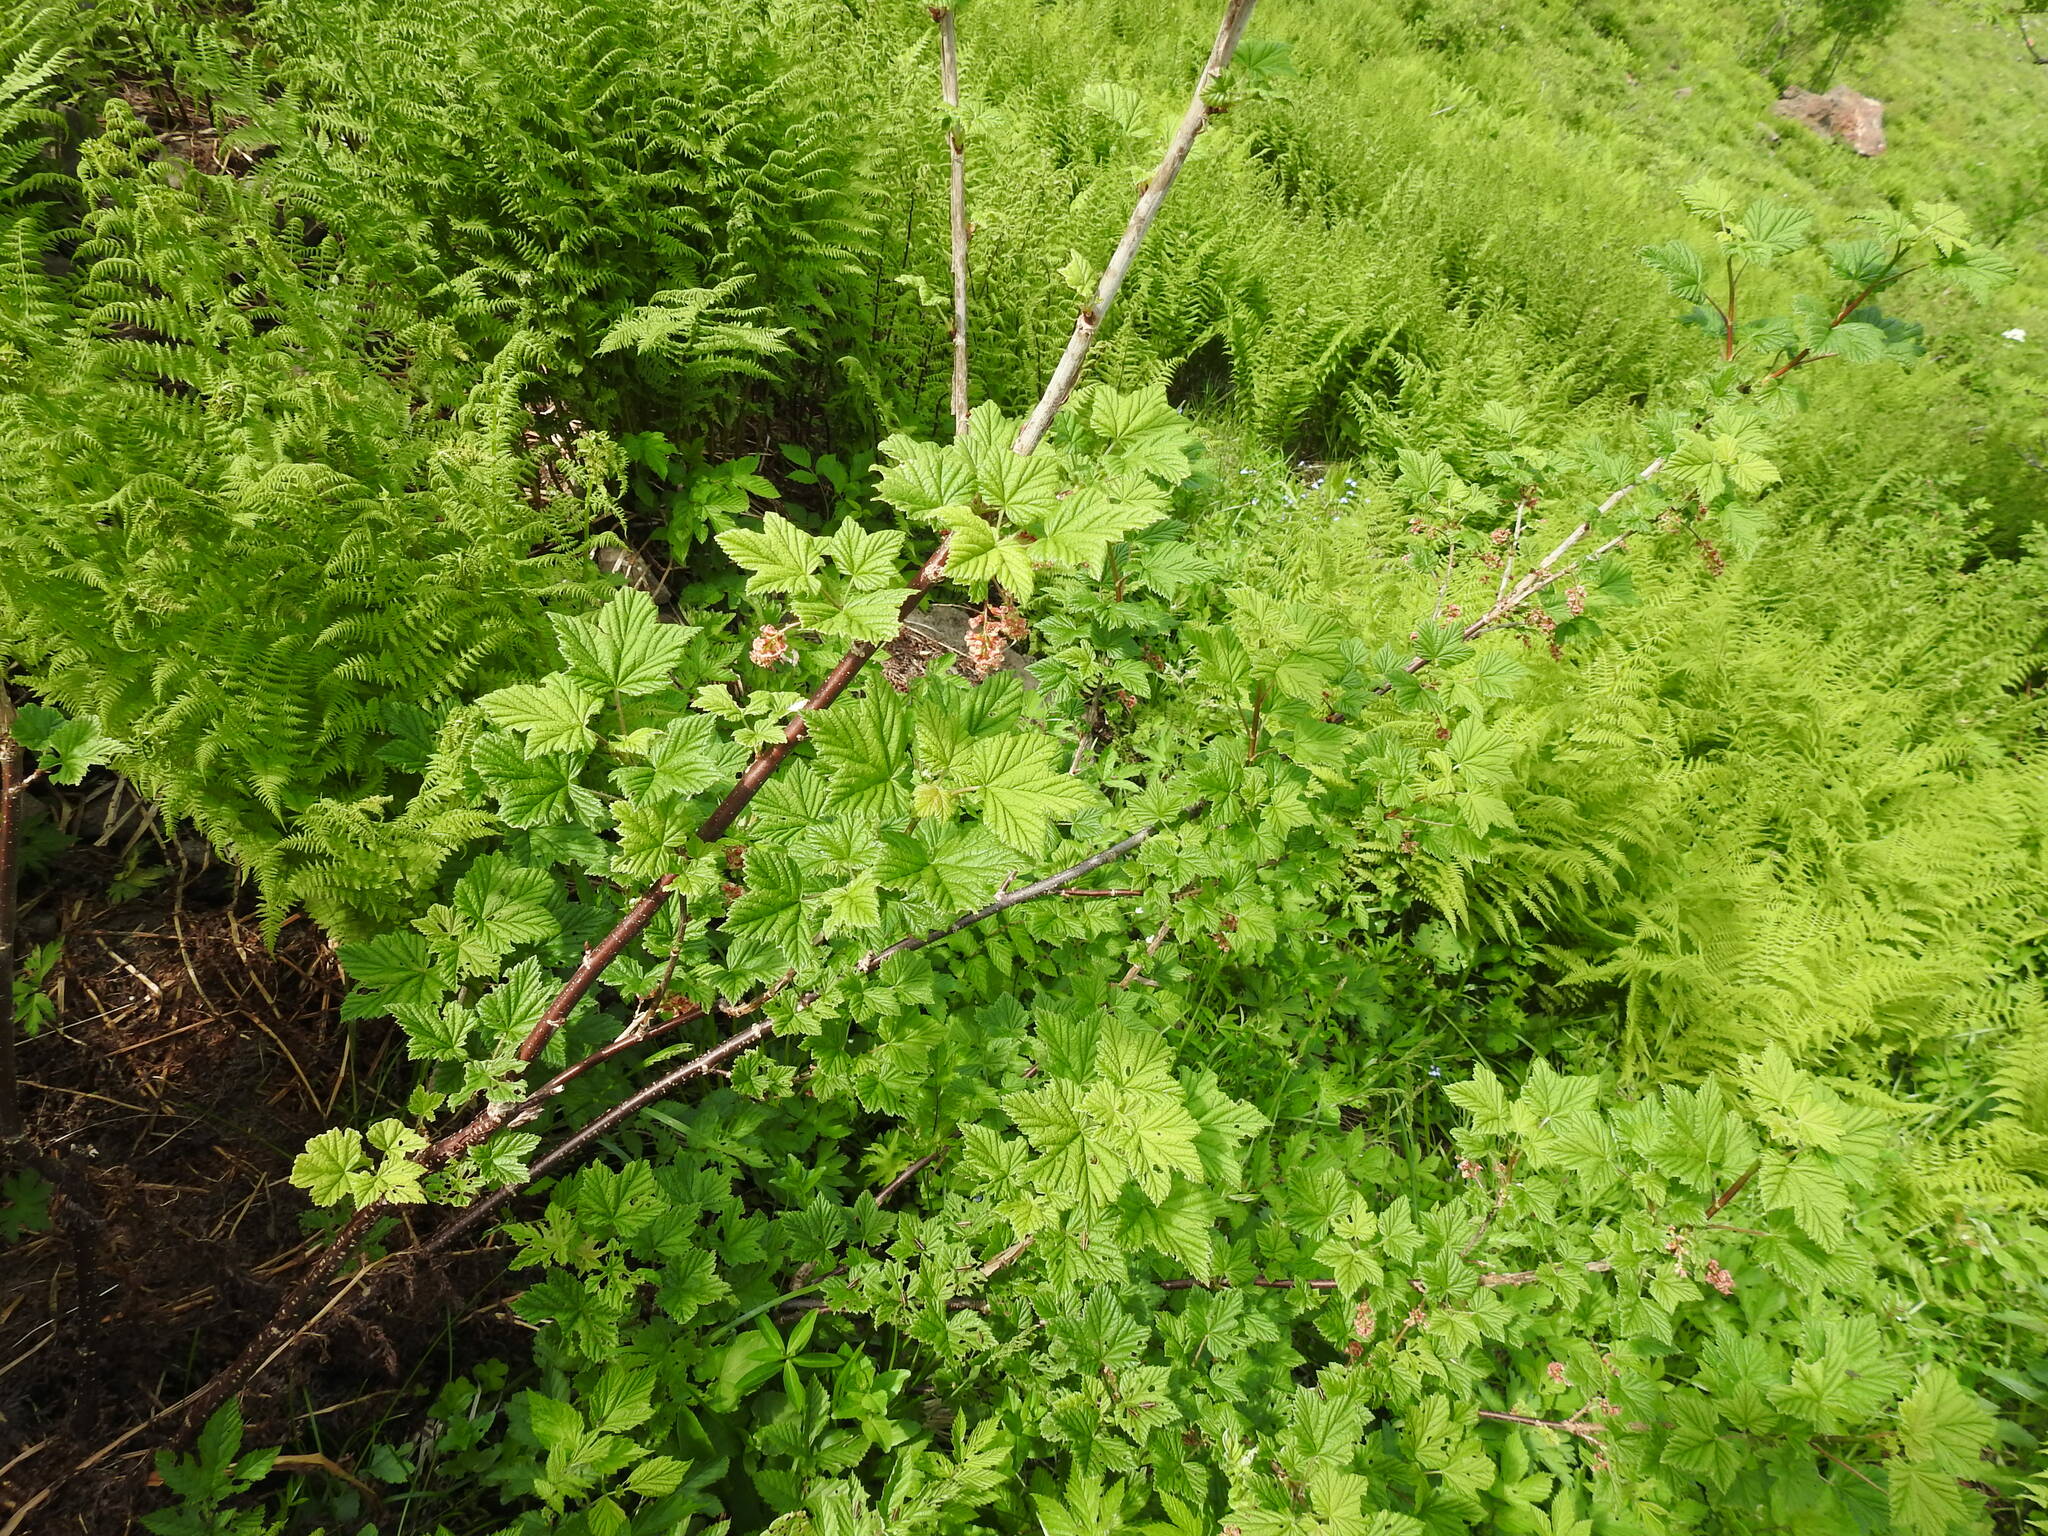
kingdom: Plantae
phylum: Tracheophyta
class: Magnoliopsida
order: Saxifragales
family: Grossulariaceae
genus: Ribes
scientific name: Ribes petraeum
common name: Rock currant
